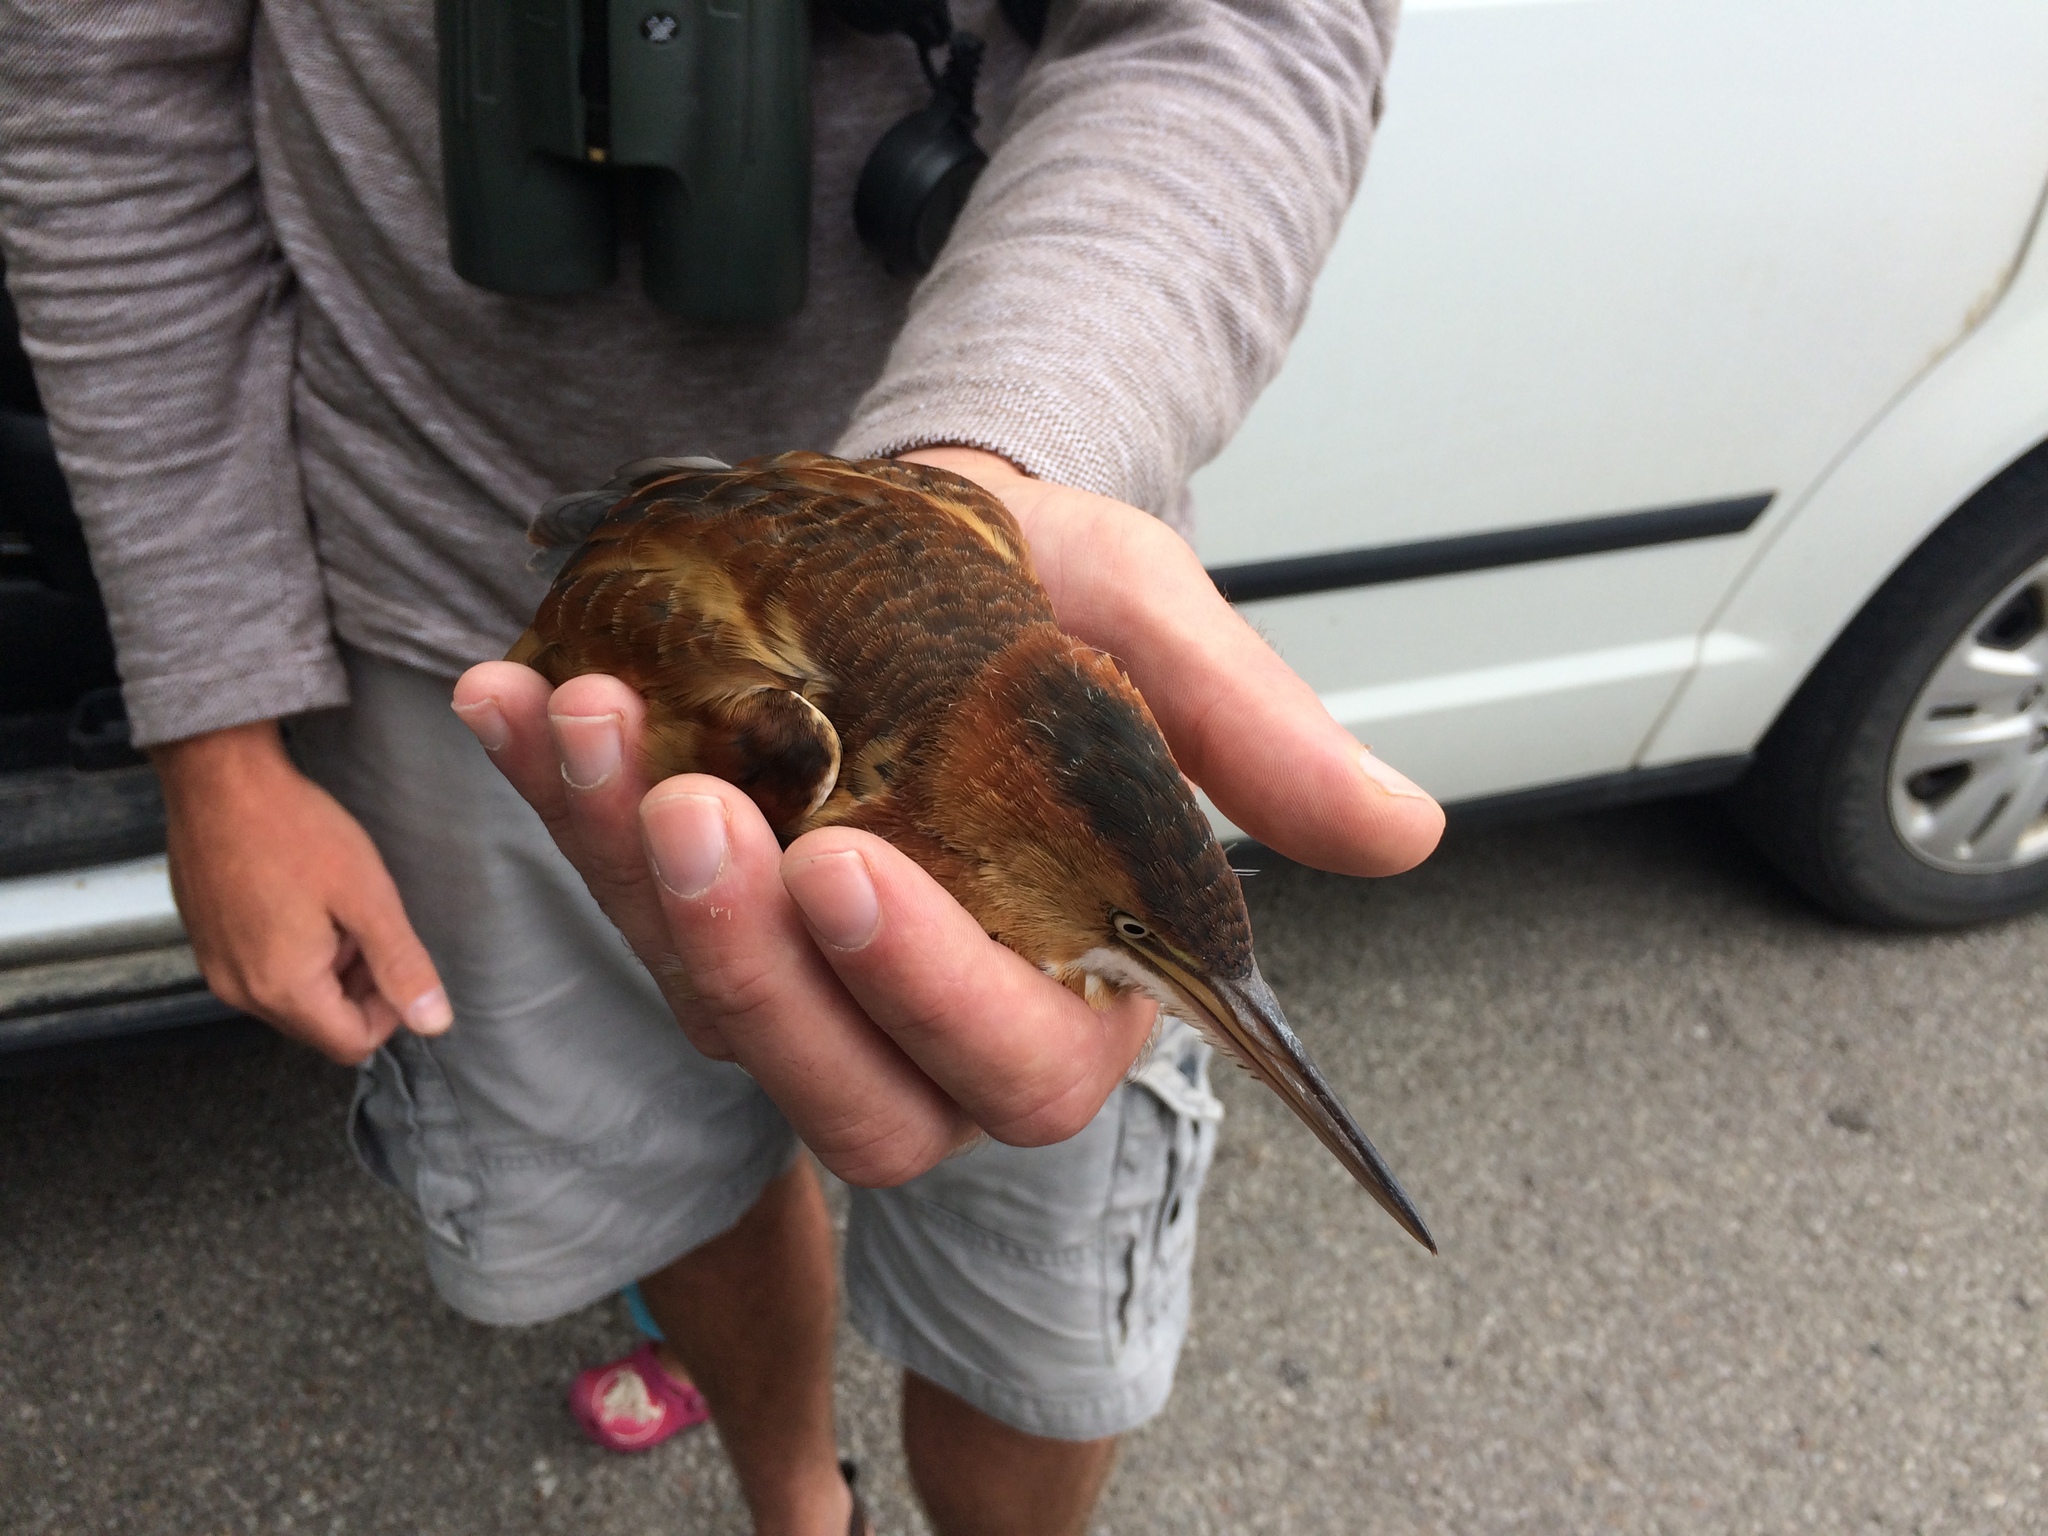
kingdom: Animalia
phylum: Chordata
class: Aves
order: Pelecaniformes
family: Ardeidae
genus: Ixobrychus
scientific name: Ixobrychus exilis
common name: Least bittern
